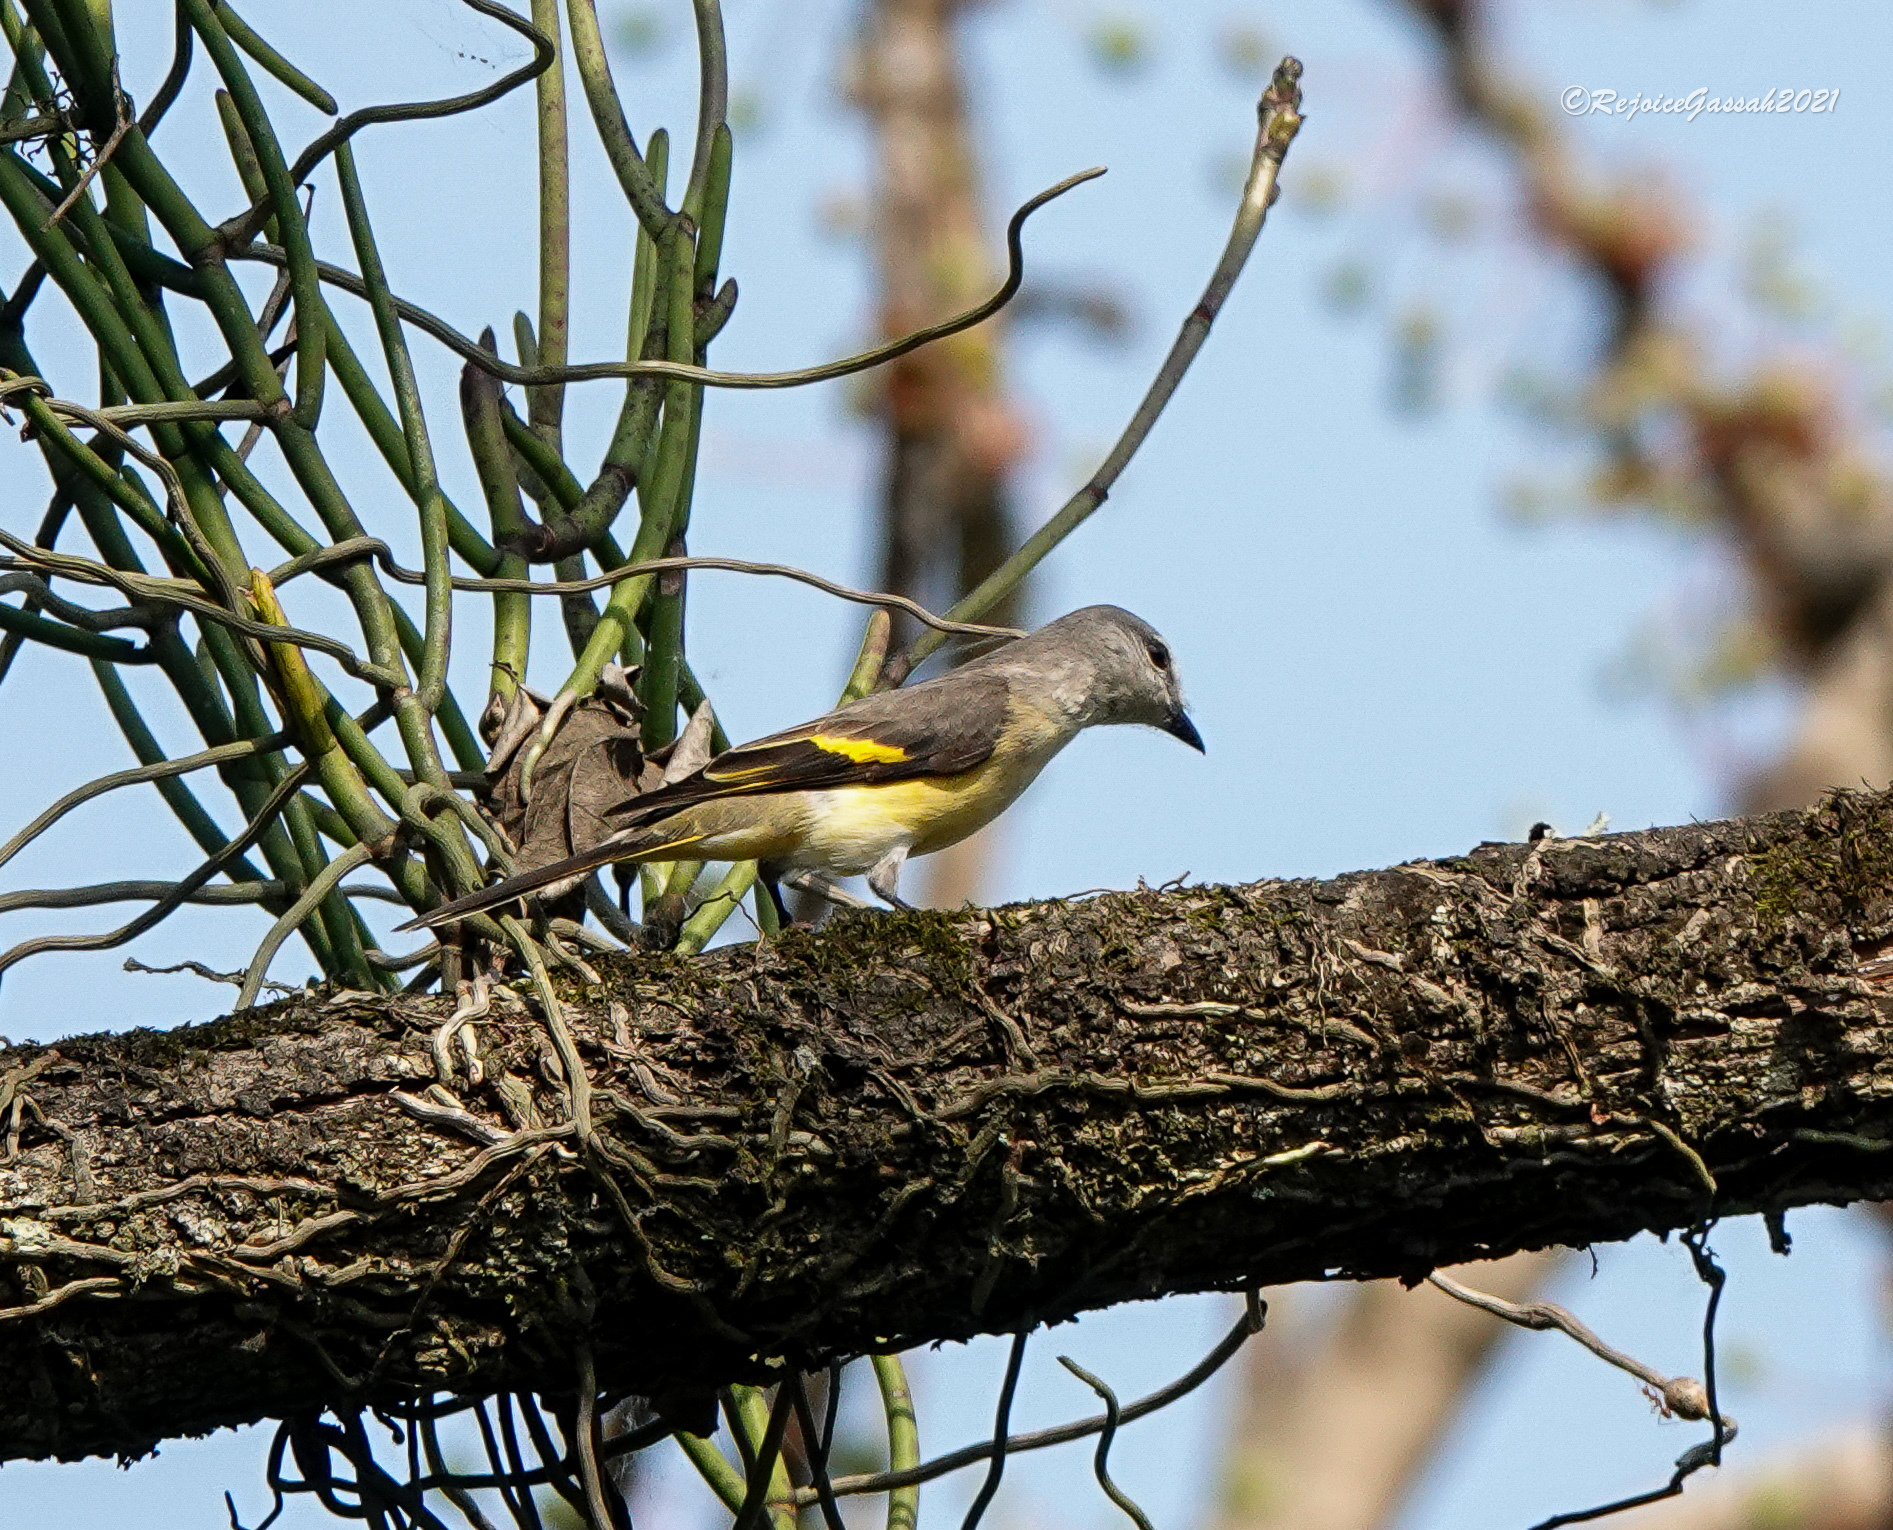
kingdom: Animalia
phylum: Chordata
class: Aves
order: Passeriformes
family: Campephagidae
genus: Pericrocotus
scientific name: Pericrocotus roseus
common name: Rosy minivet
